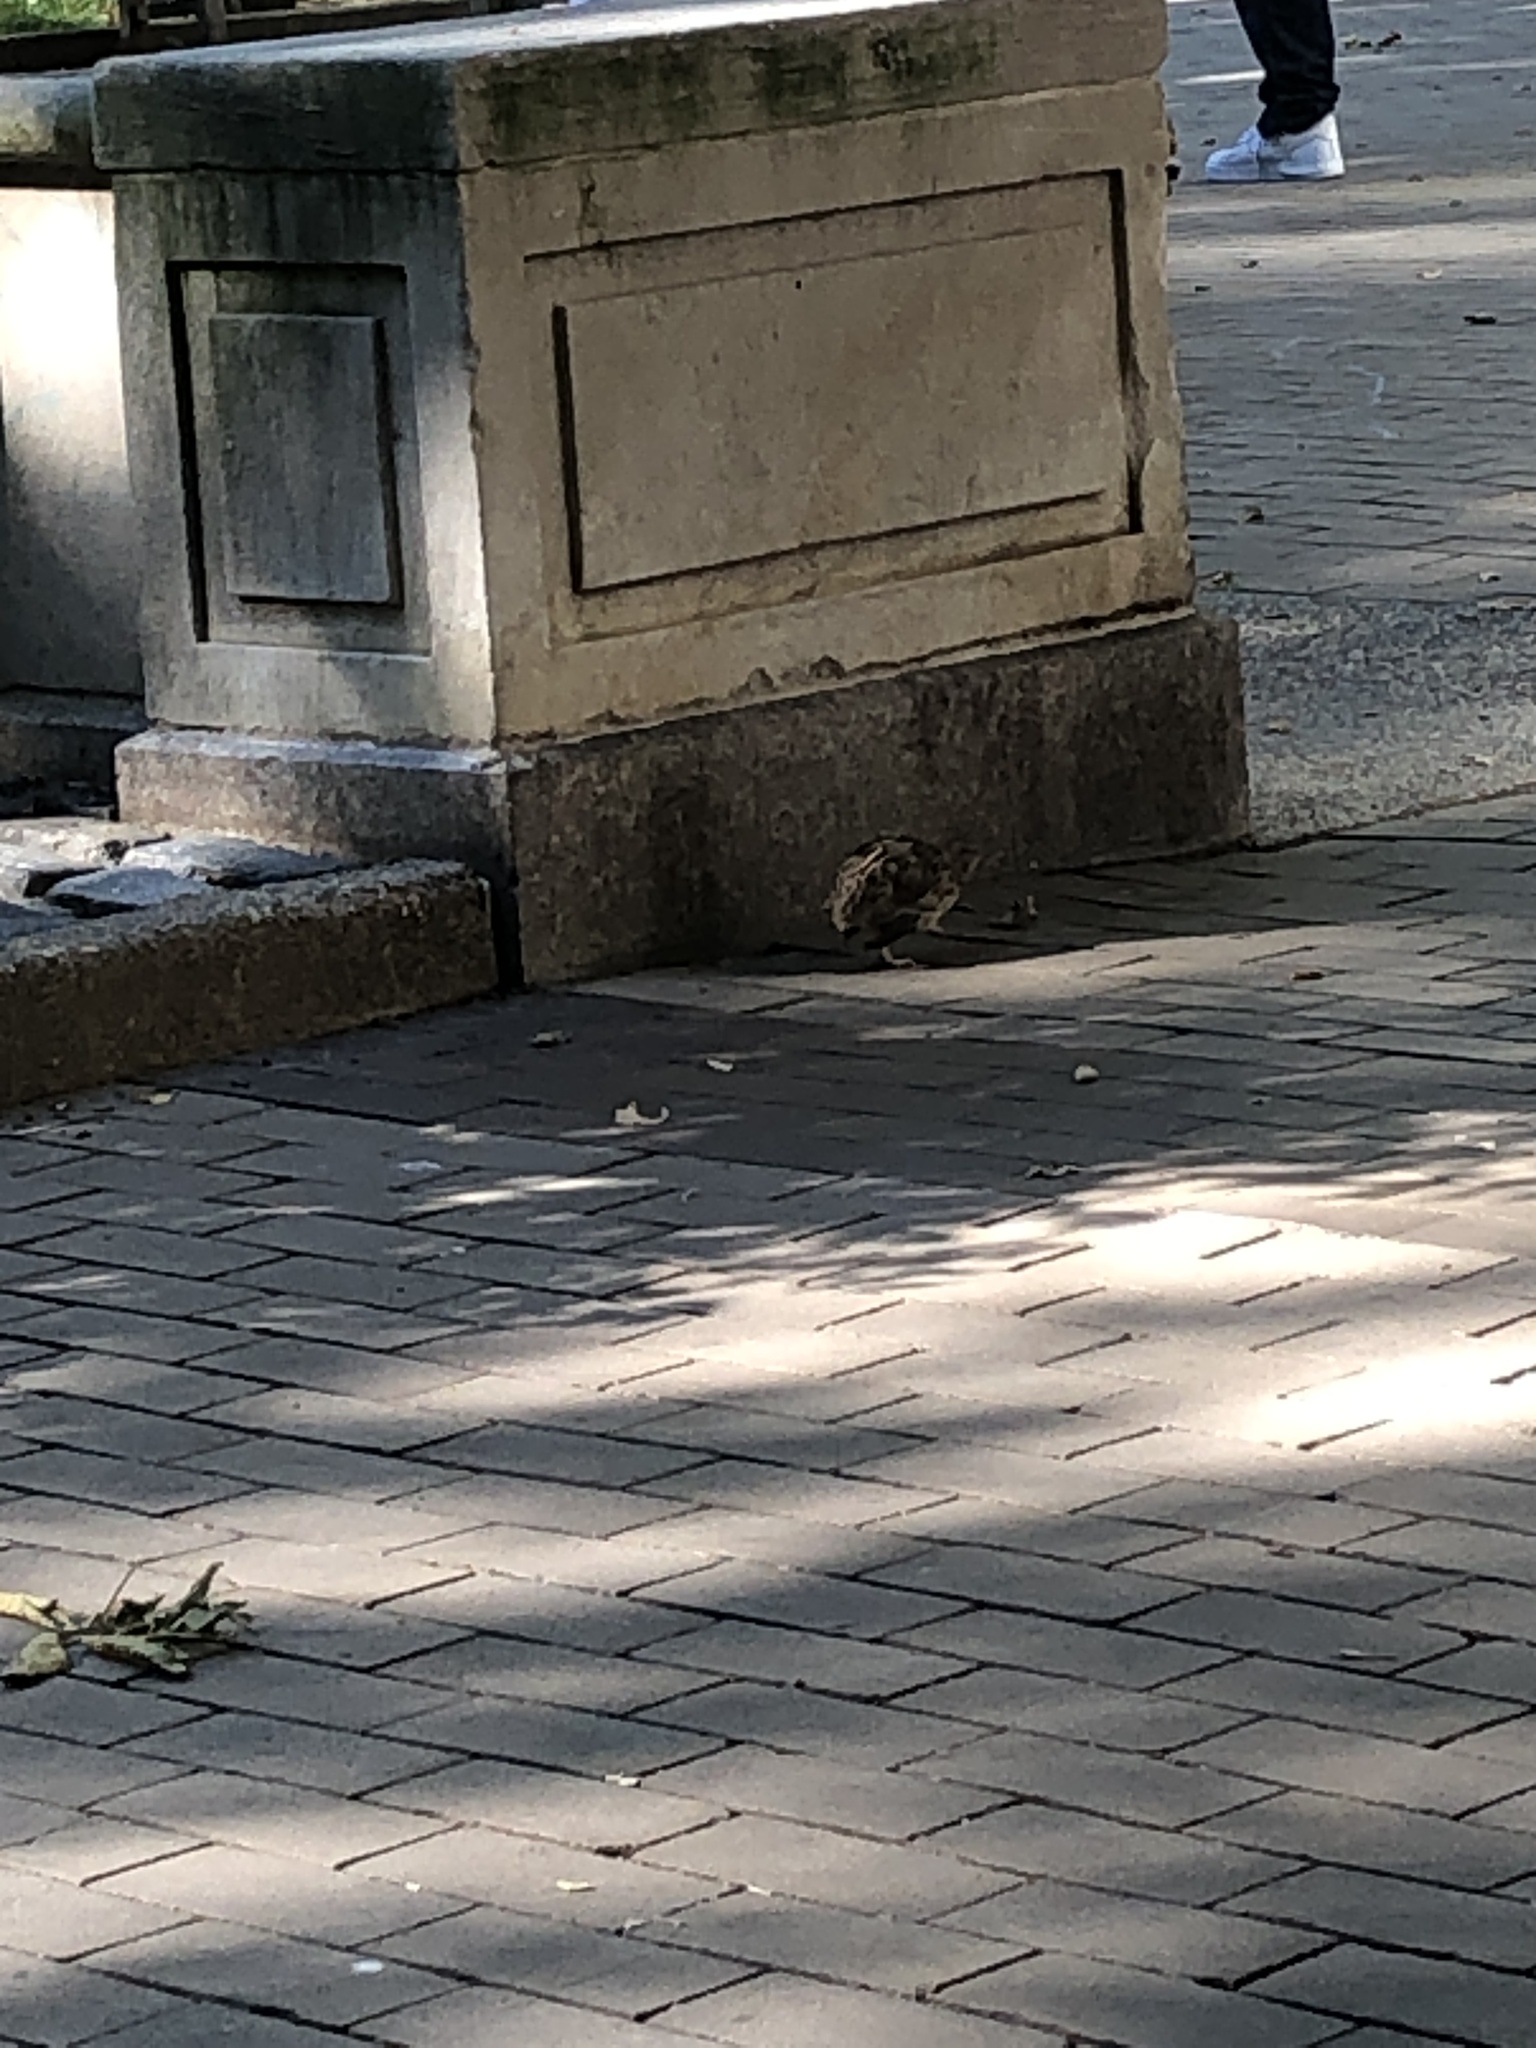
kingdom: Animalia
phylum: Chordata
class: Aves
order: Galliformes
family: Phasianidae
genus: Coturnix
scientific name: Coturnix japonica
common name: Japanese quail
